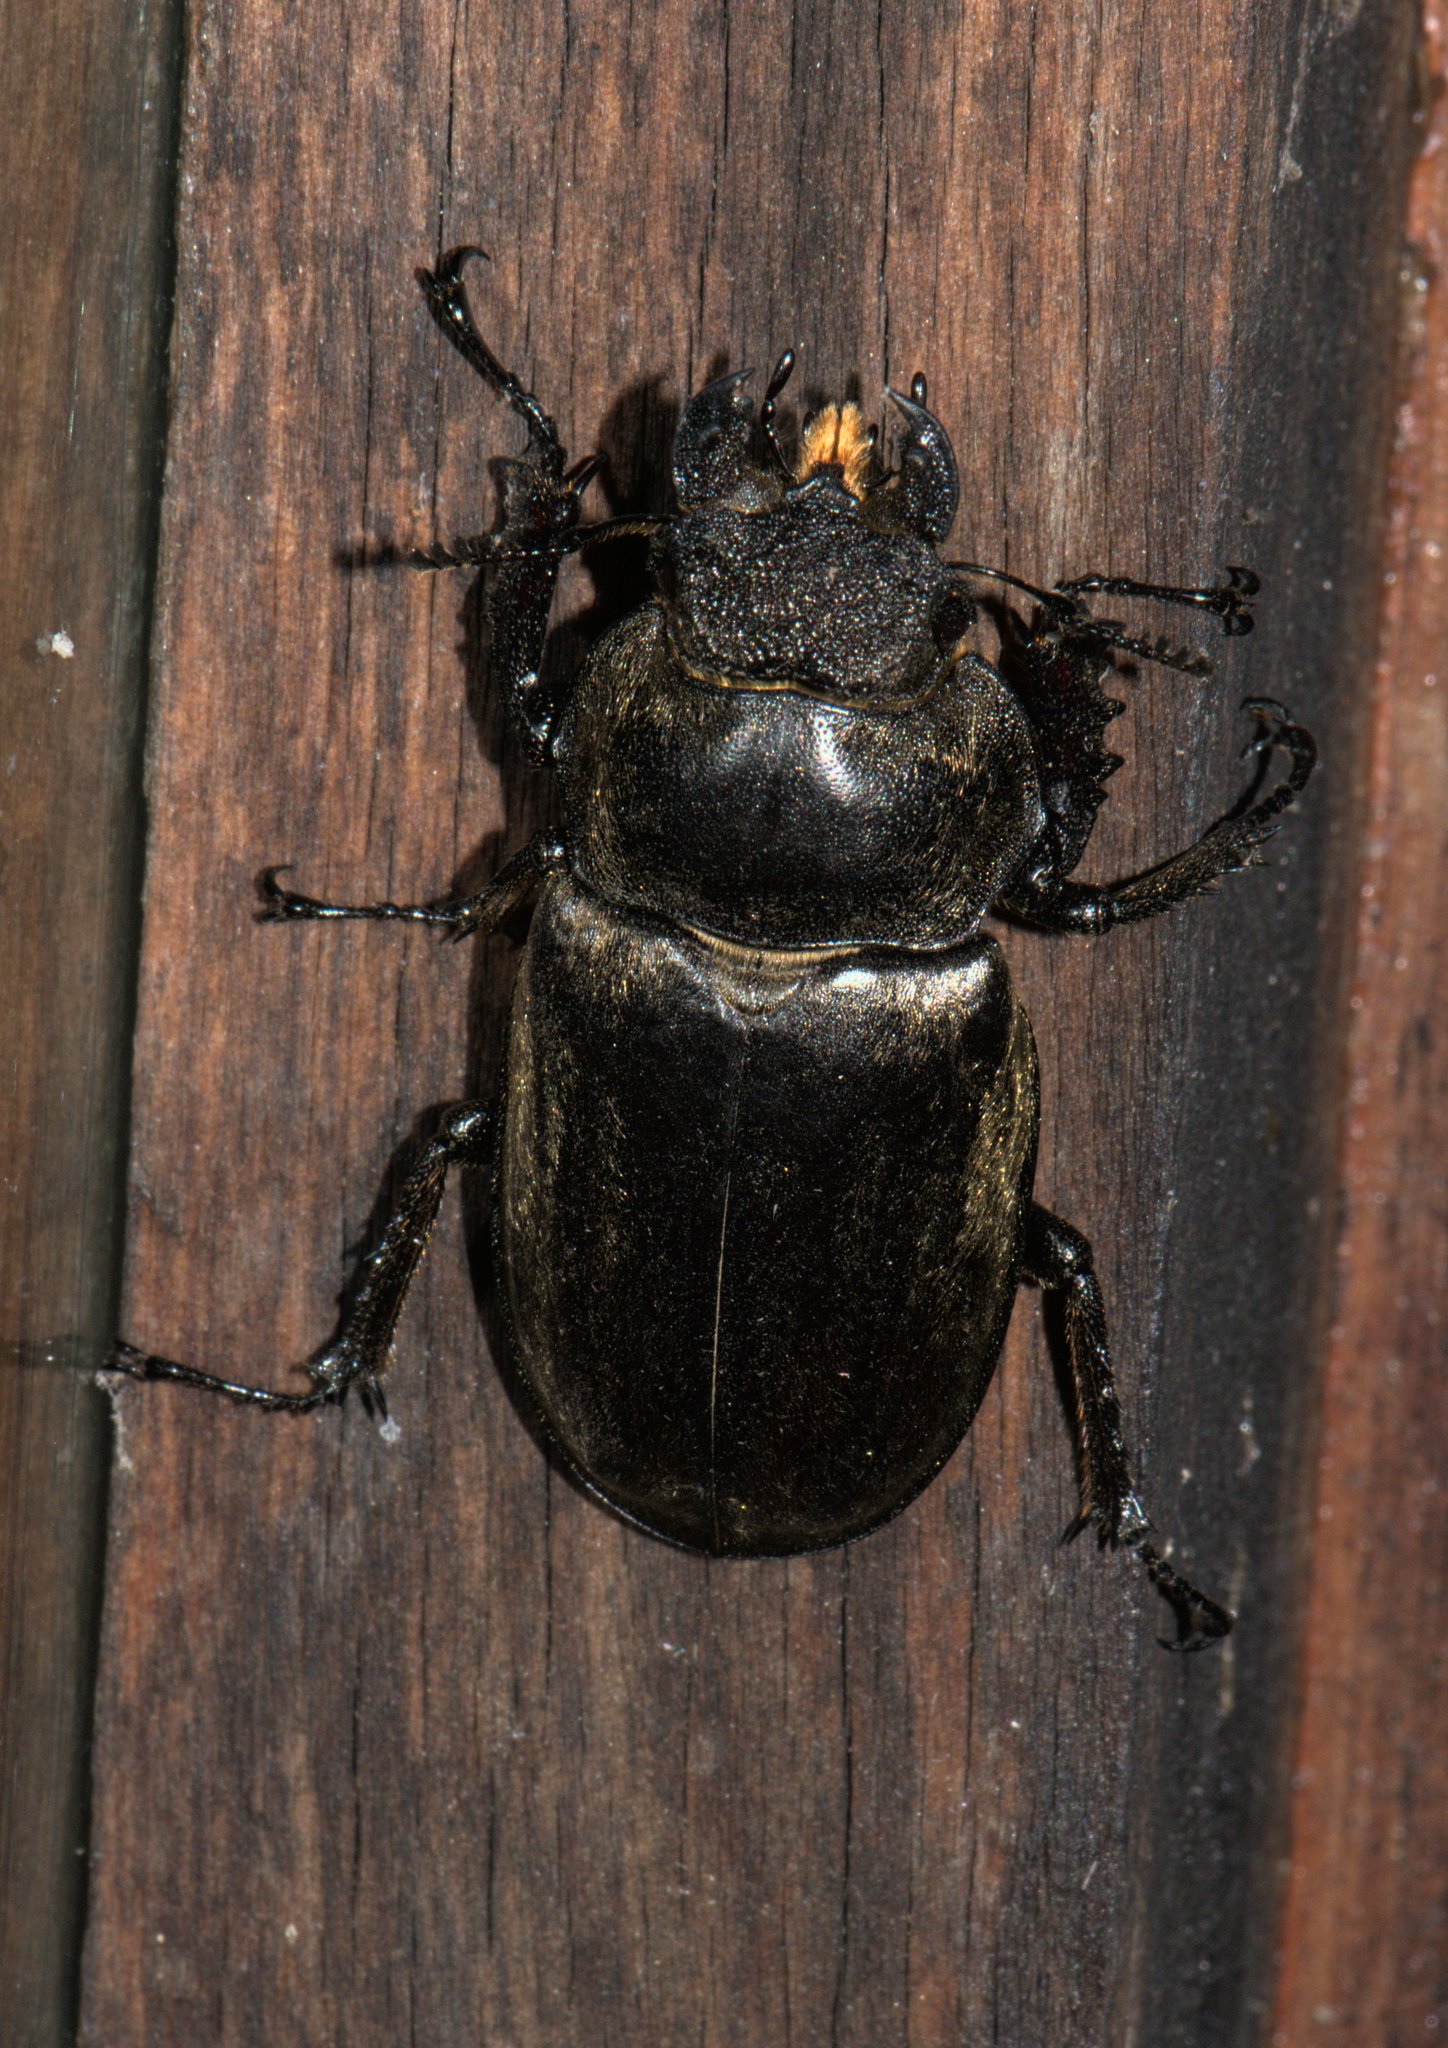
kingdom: Animalia
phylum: Arthropoda
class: Insecta
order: Coleoptera
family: Lucanidae
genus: Lucanus
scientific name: Lucanus lunifer
